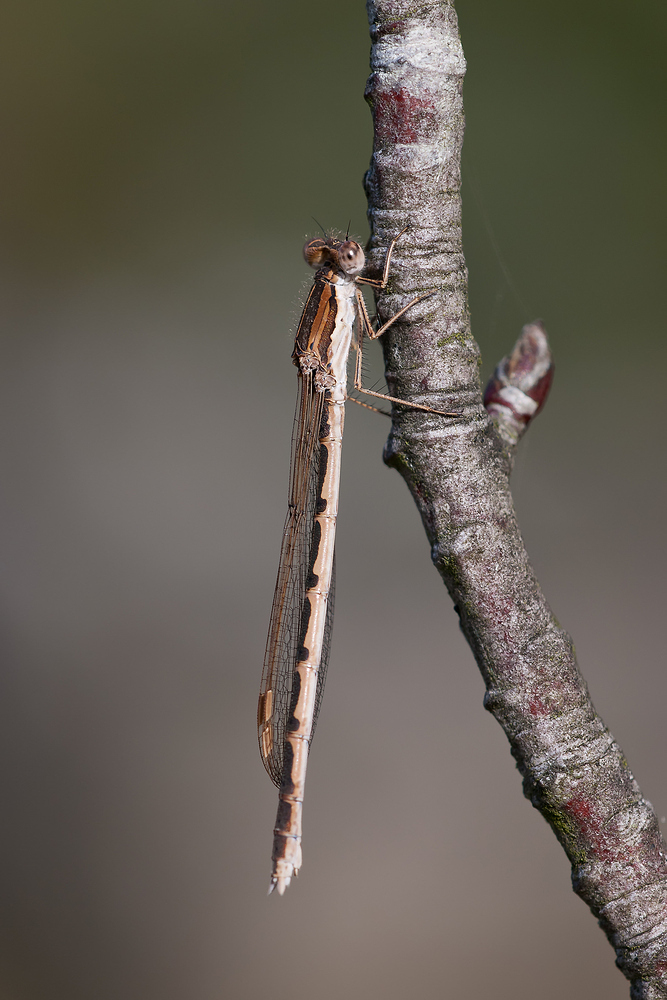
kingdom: Animalia
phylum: Arthropoda
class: Insecta
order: Odonata
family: Lestidae
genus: Sympecma
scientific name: Sympecma fusca
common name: Common winter damsel
